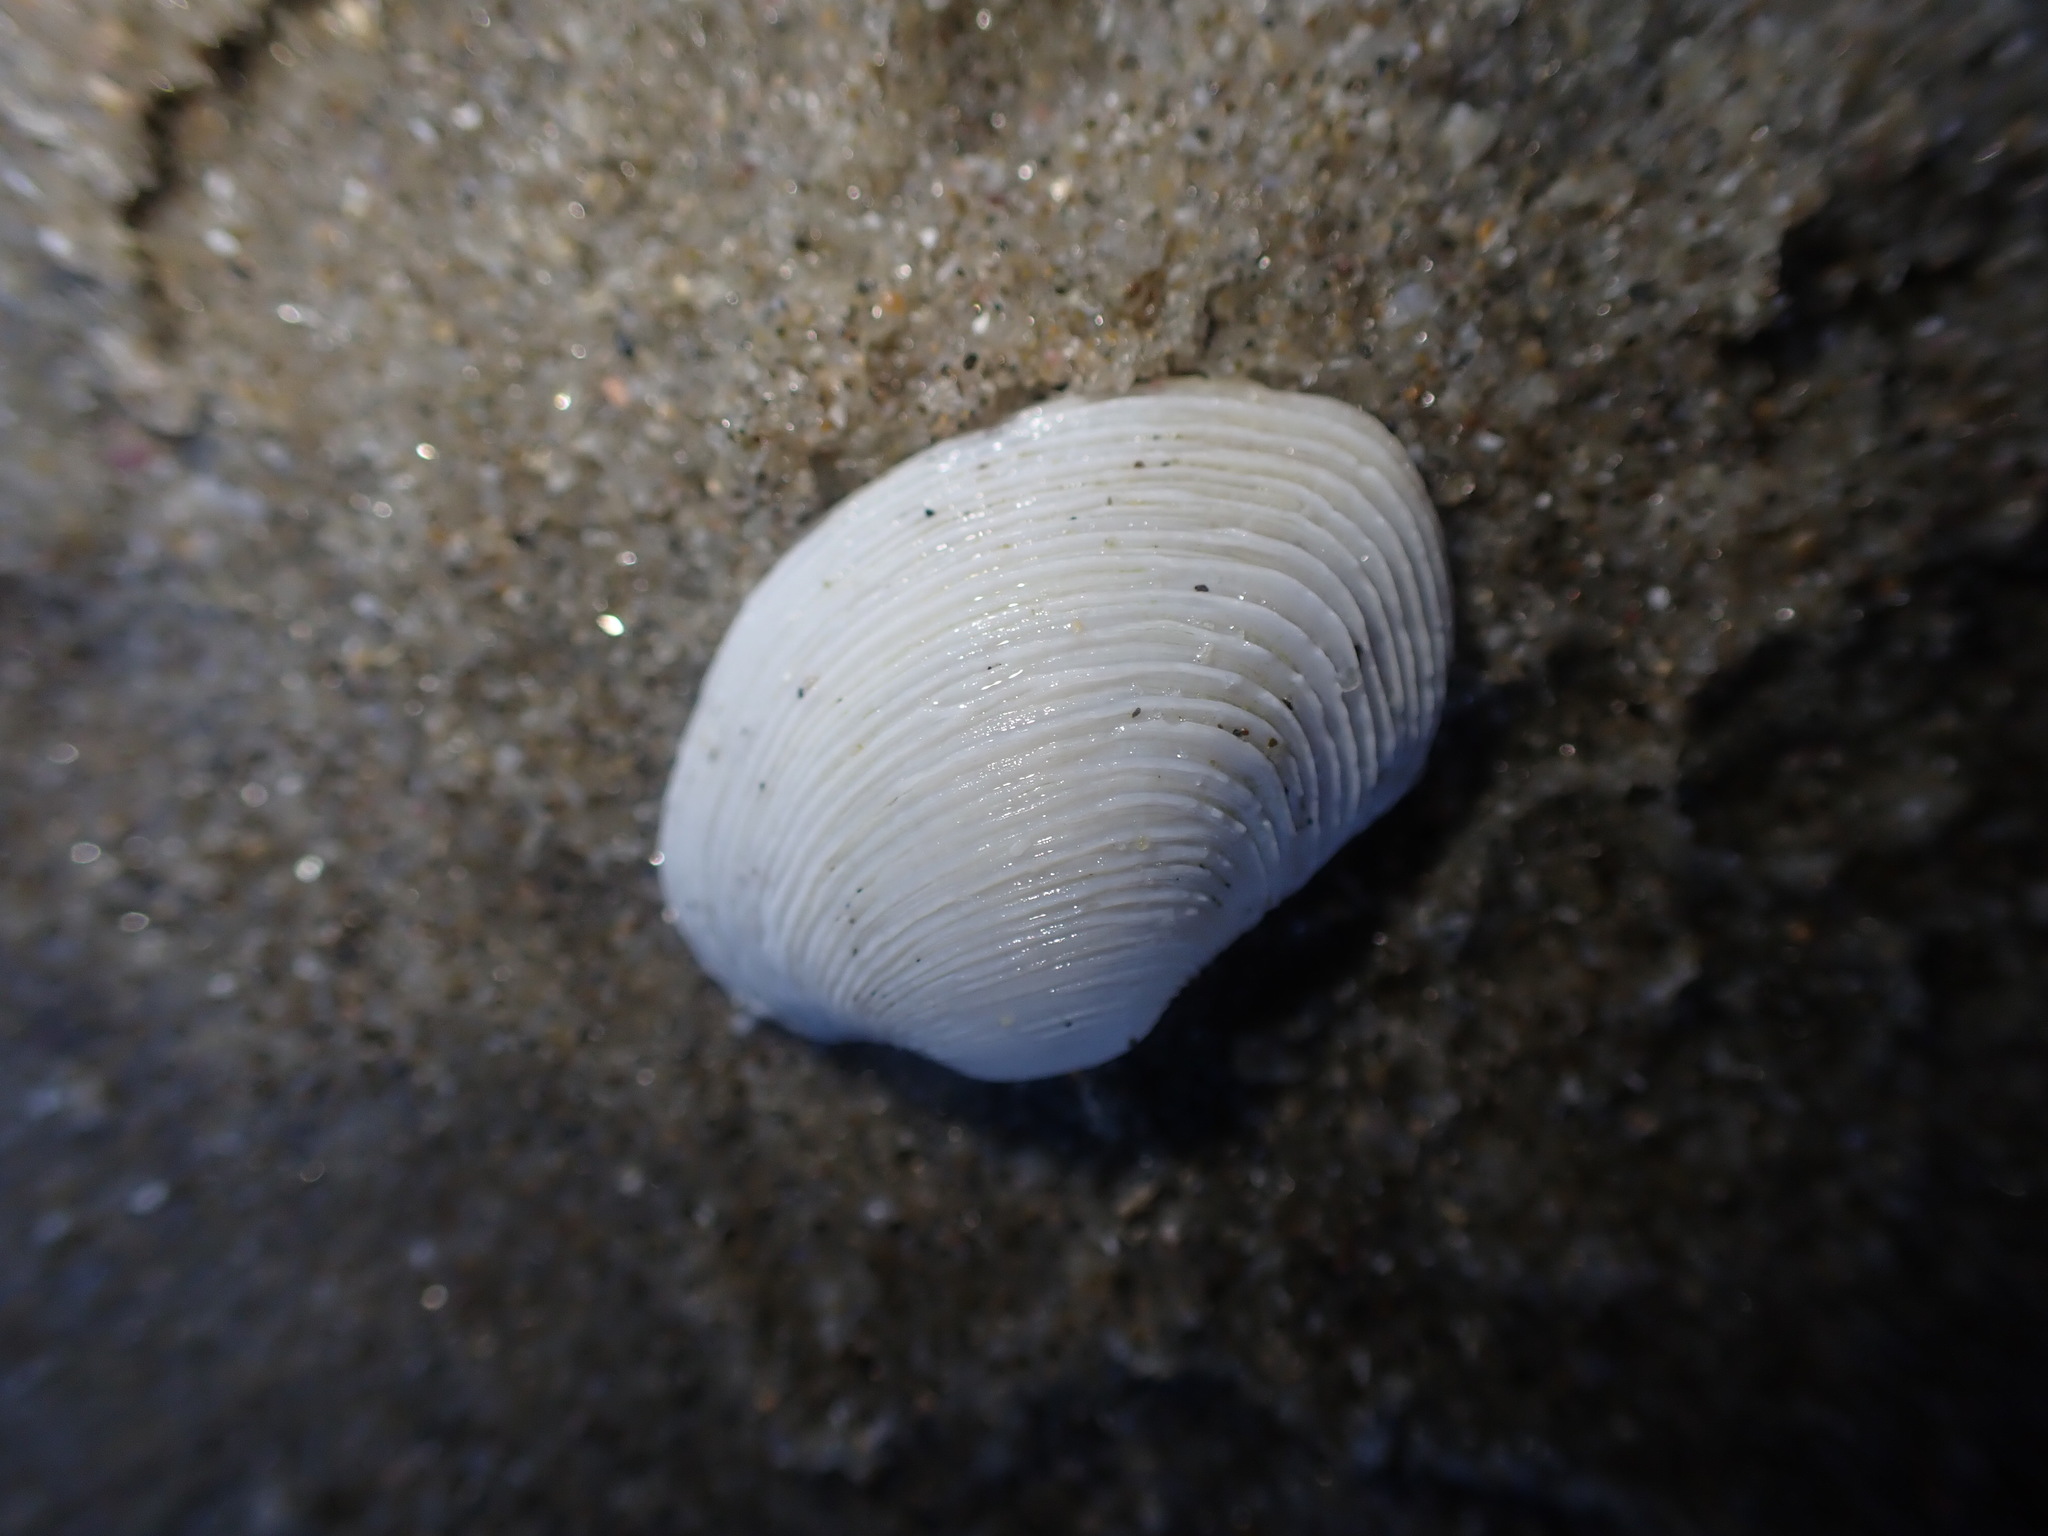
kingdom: Animalia
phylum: Mollusca
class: Bivalvia
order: Venerida
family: Veneridae
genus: Irus
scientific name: Irus reflexus
